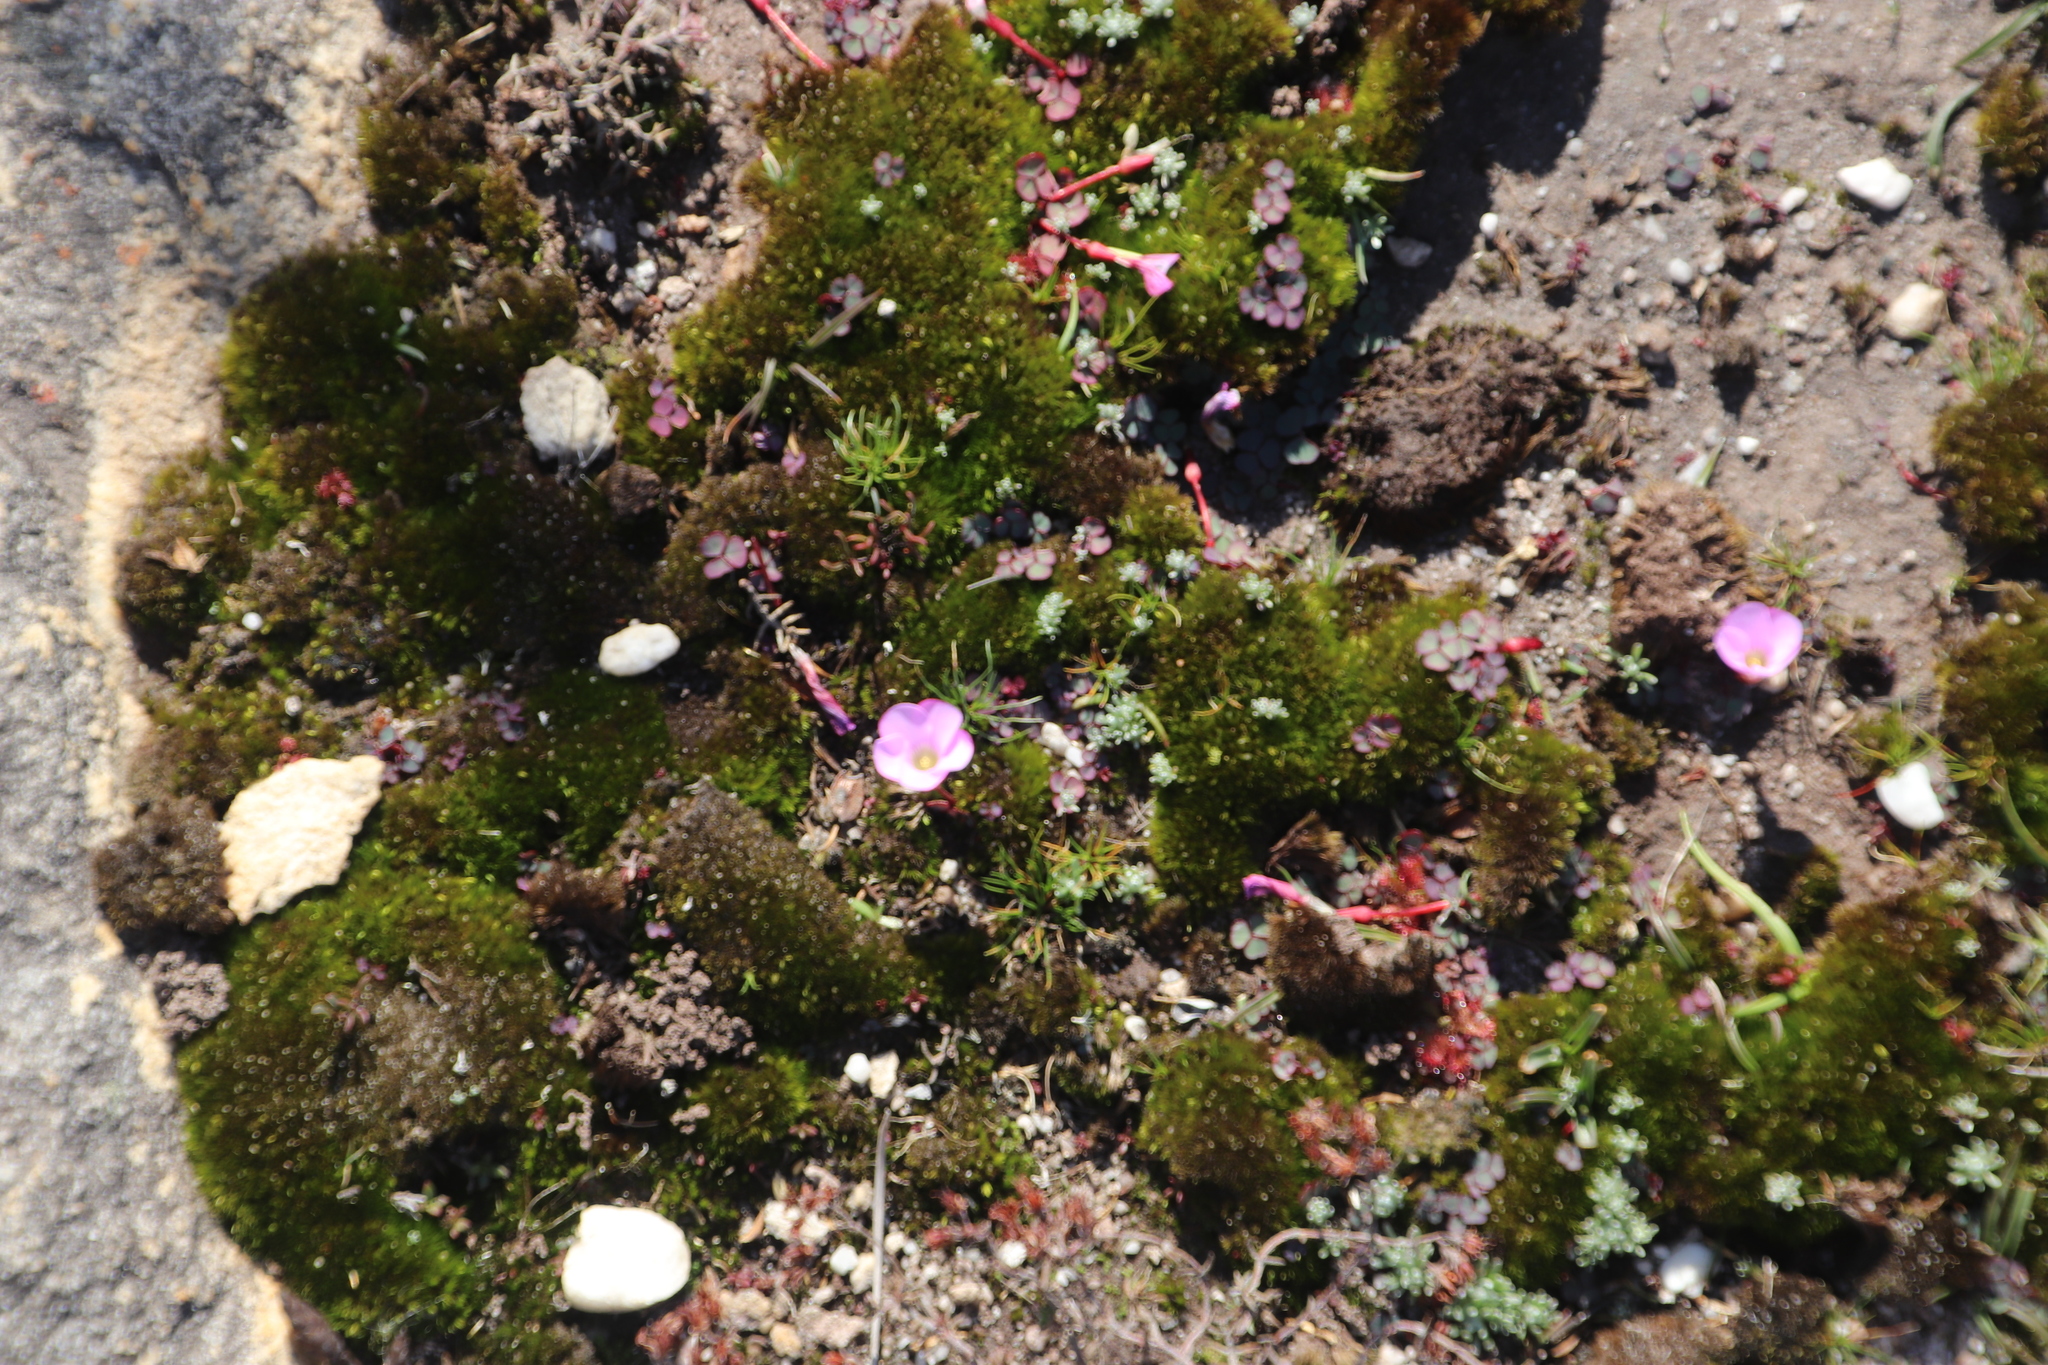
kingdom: Plantae
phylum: Tracheophyta
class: Magnoliopsida
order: Oxalidales
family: Oxalidaceae
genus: Oxalis
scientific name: Oxalis commutata
